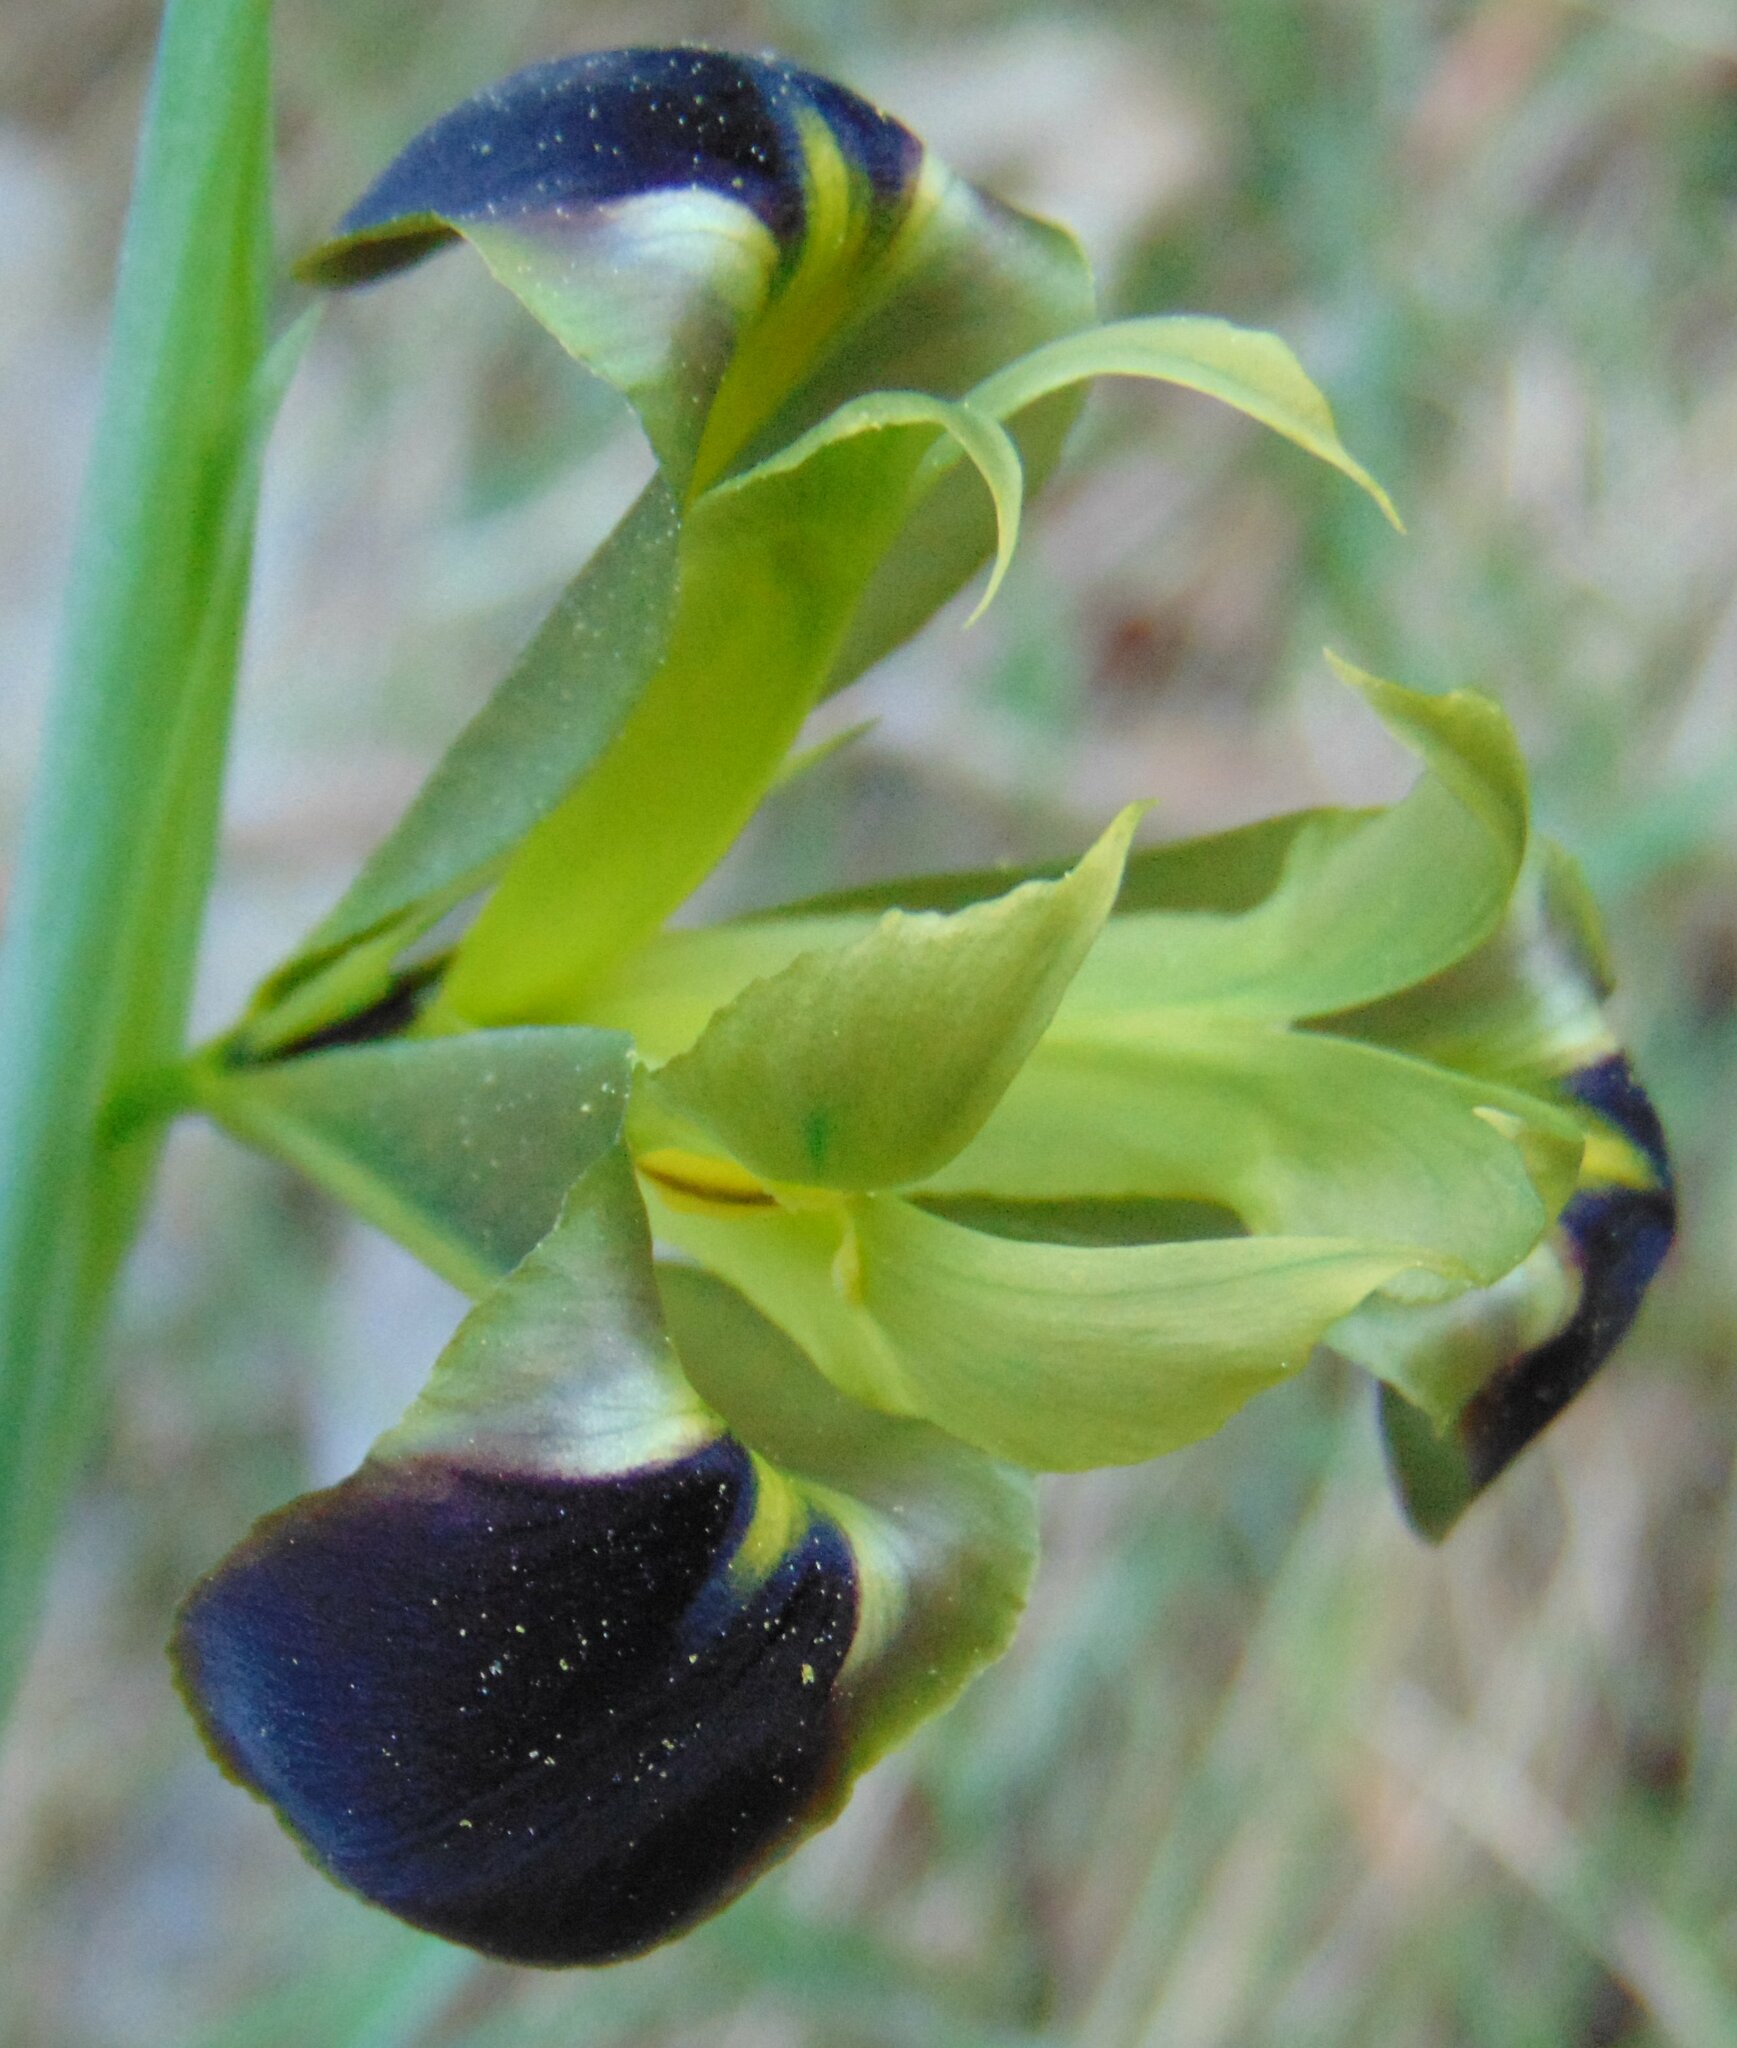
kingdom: Plantae
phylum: Tracheophyta
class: Liliopsida
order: Asparagales
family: Iridaceae
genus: Iris
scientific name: Iris tuberosa
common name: Snake's-head iris
